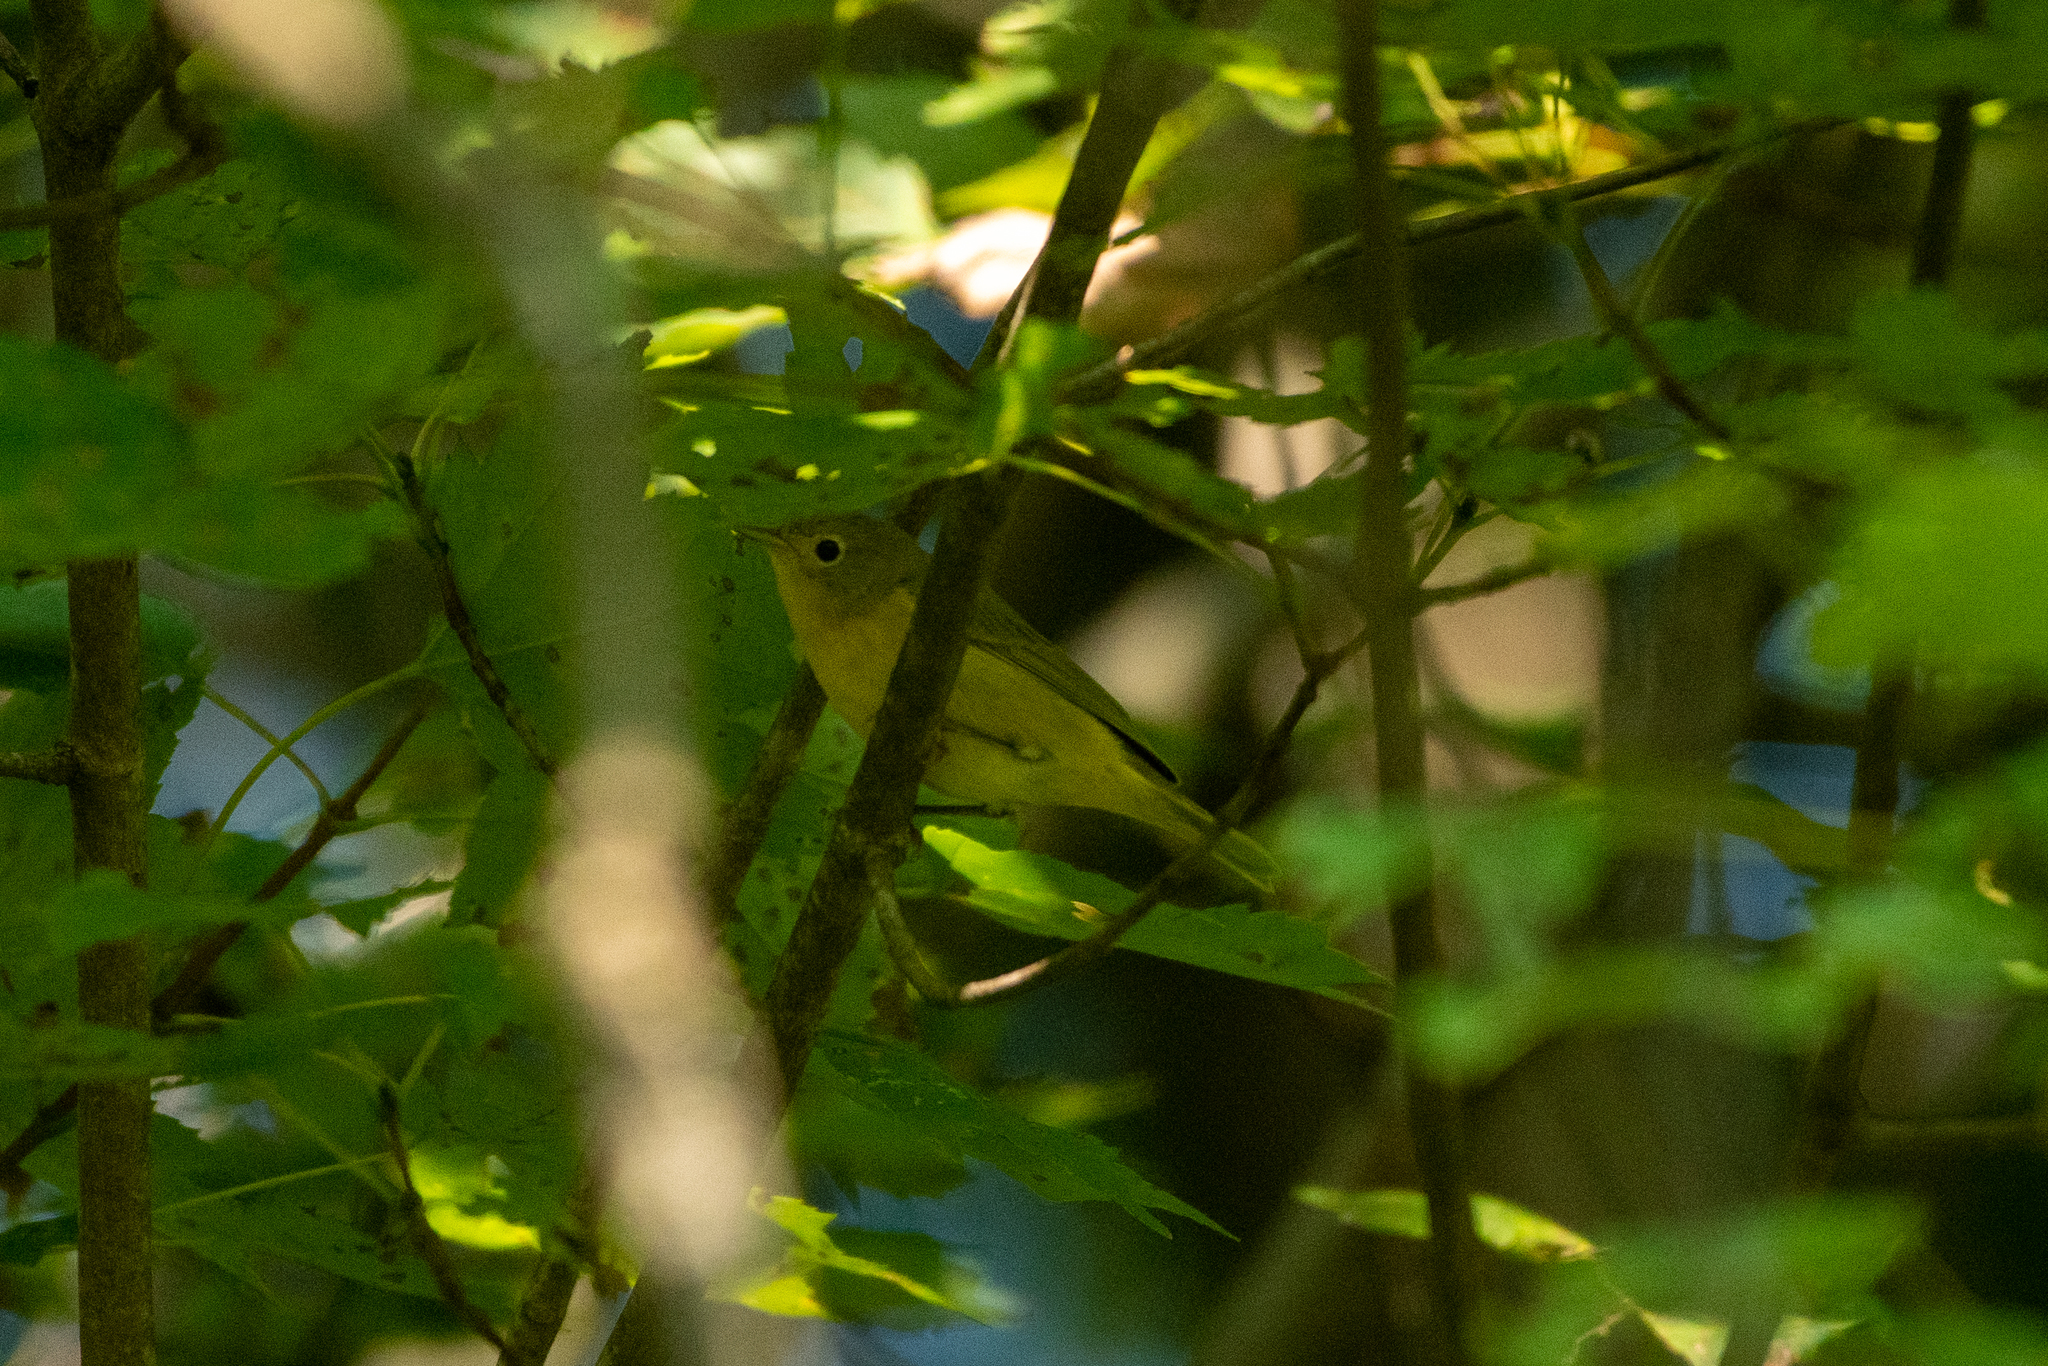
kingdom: Animalia
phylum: Chordata
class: Aves
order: Passeriformes
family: Parulidae
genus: Leiothlypis
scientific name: Leiothlypis ruficapilla
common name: Nashville warbler
